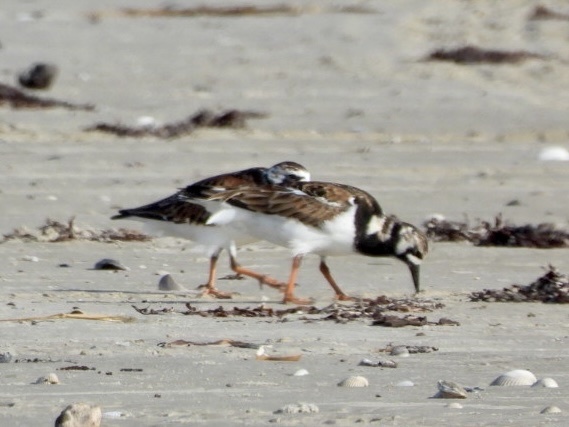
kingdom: Animalia
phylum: Chordata
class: Aves
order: Charadriiformes
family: Scolopacidae
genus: Arenaria
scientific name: Arenaria interpres
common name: Ruddy turnstone
